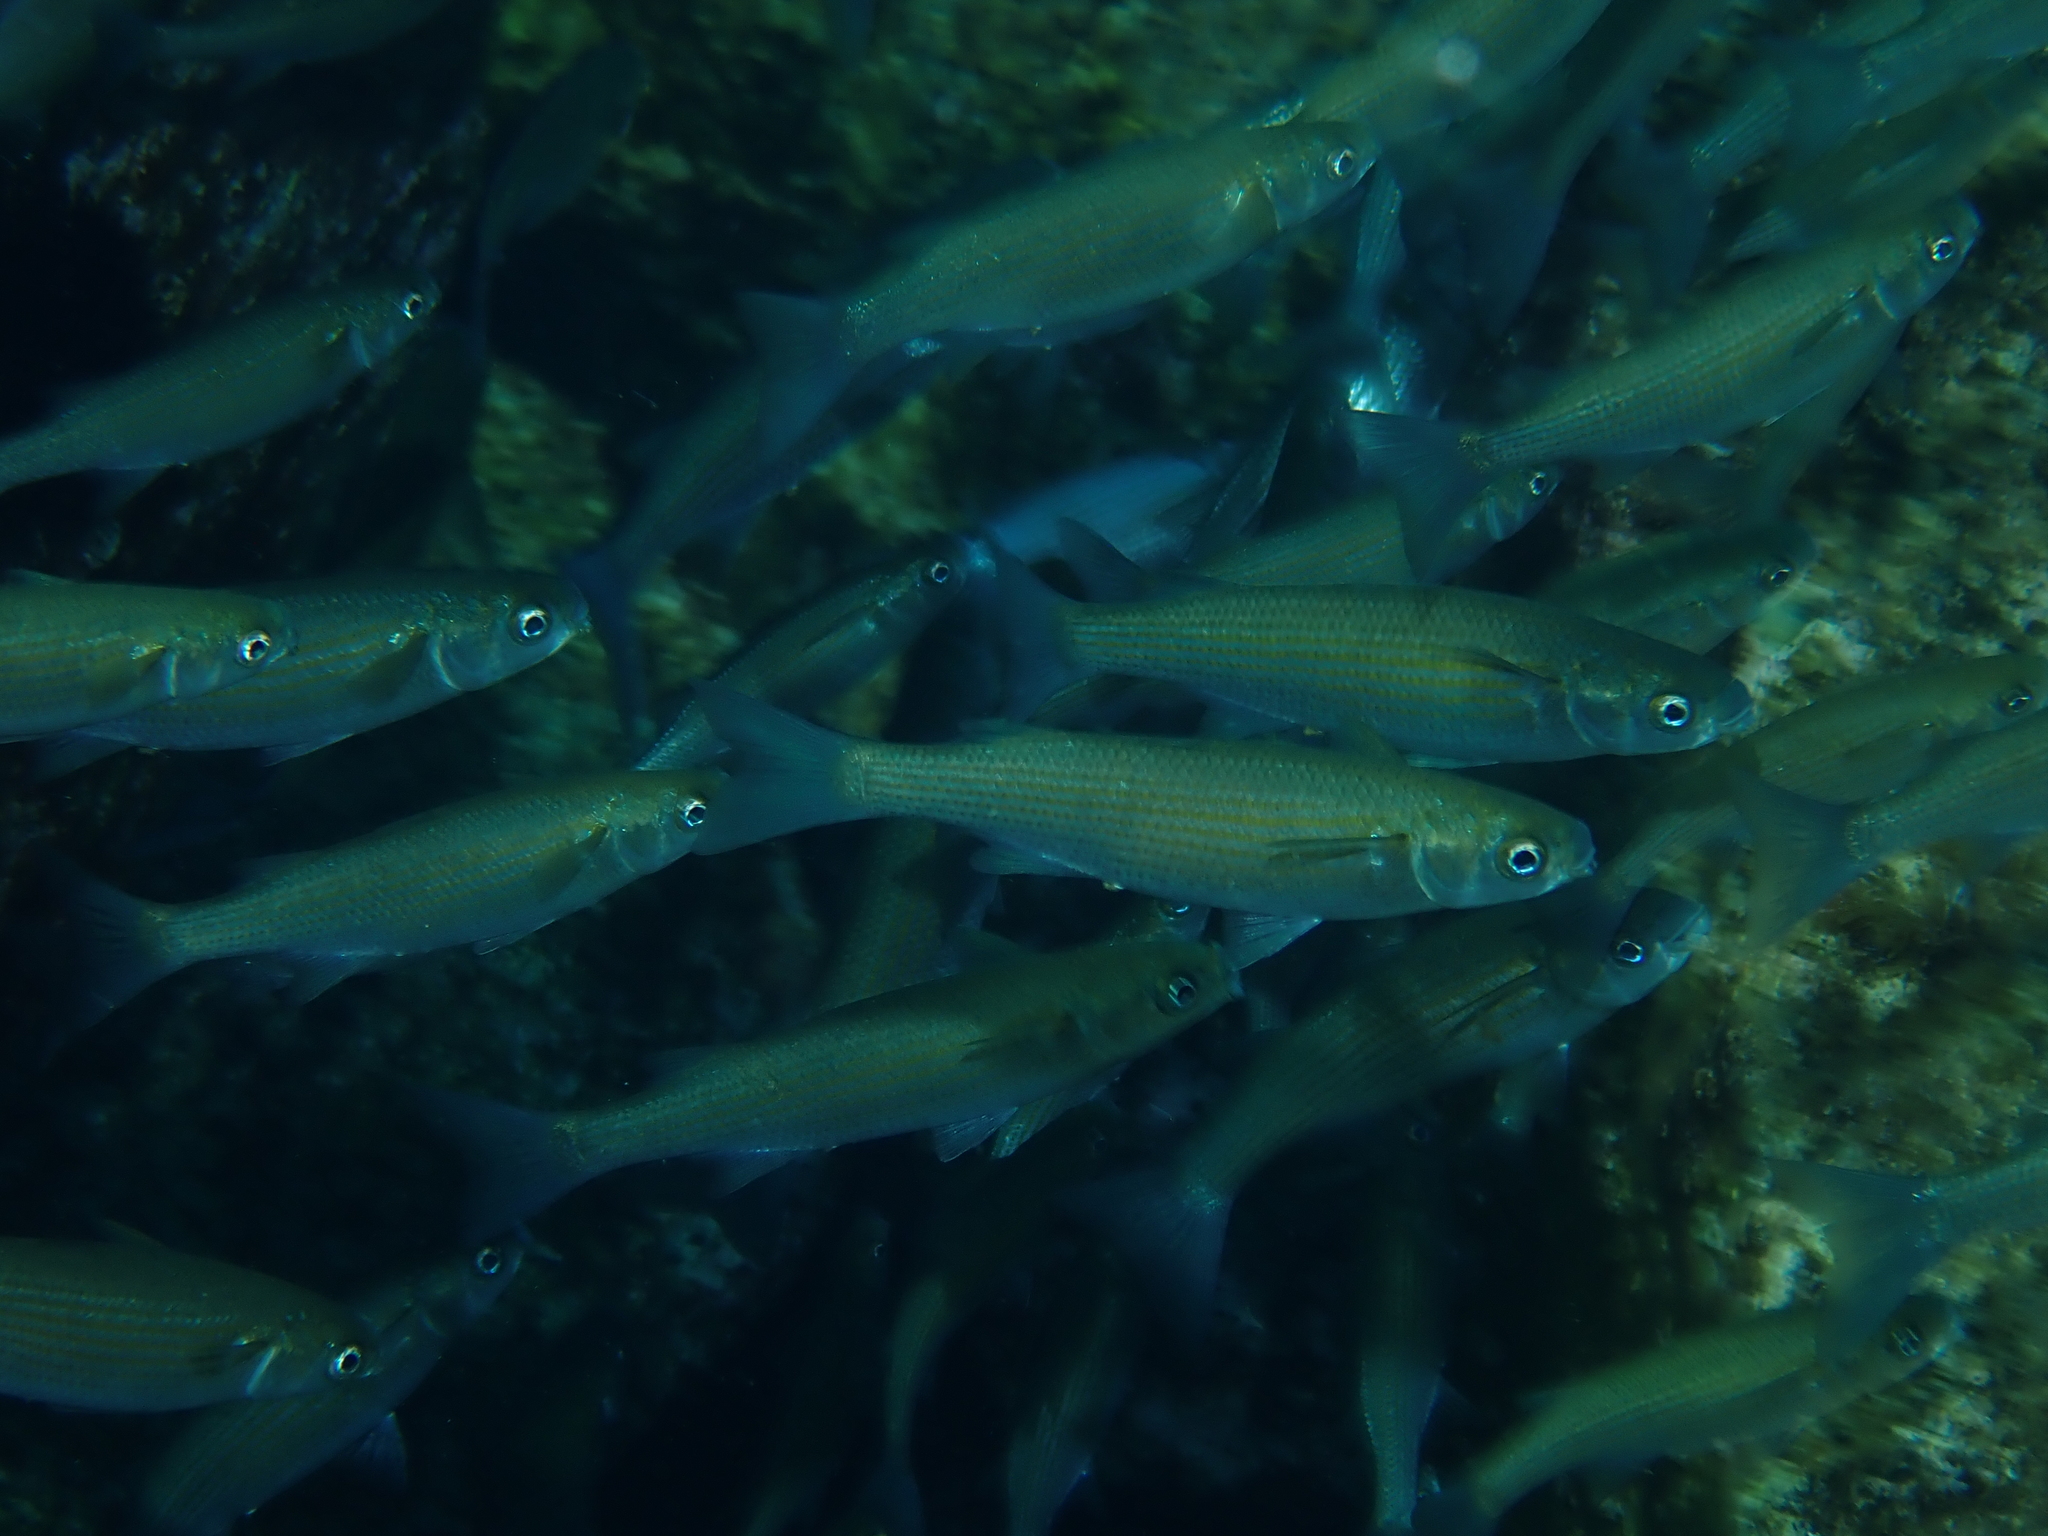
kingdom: Animalia
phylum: Chordata
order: Mugiliformes
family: Mugilidae
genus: Oedalechilus
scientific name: Oedalechilus labeo
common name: Boxlip mullet
